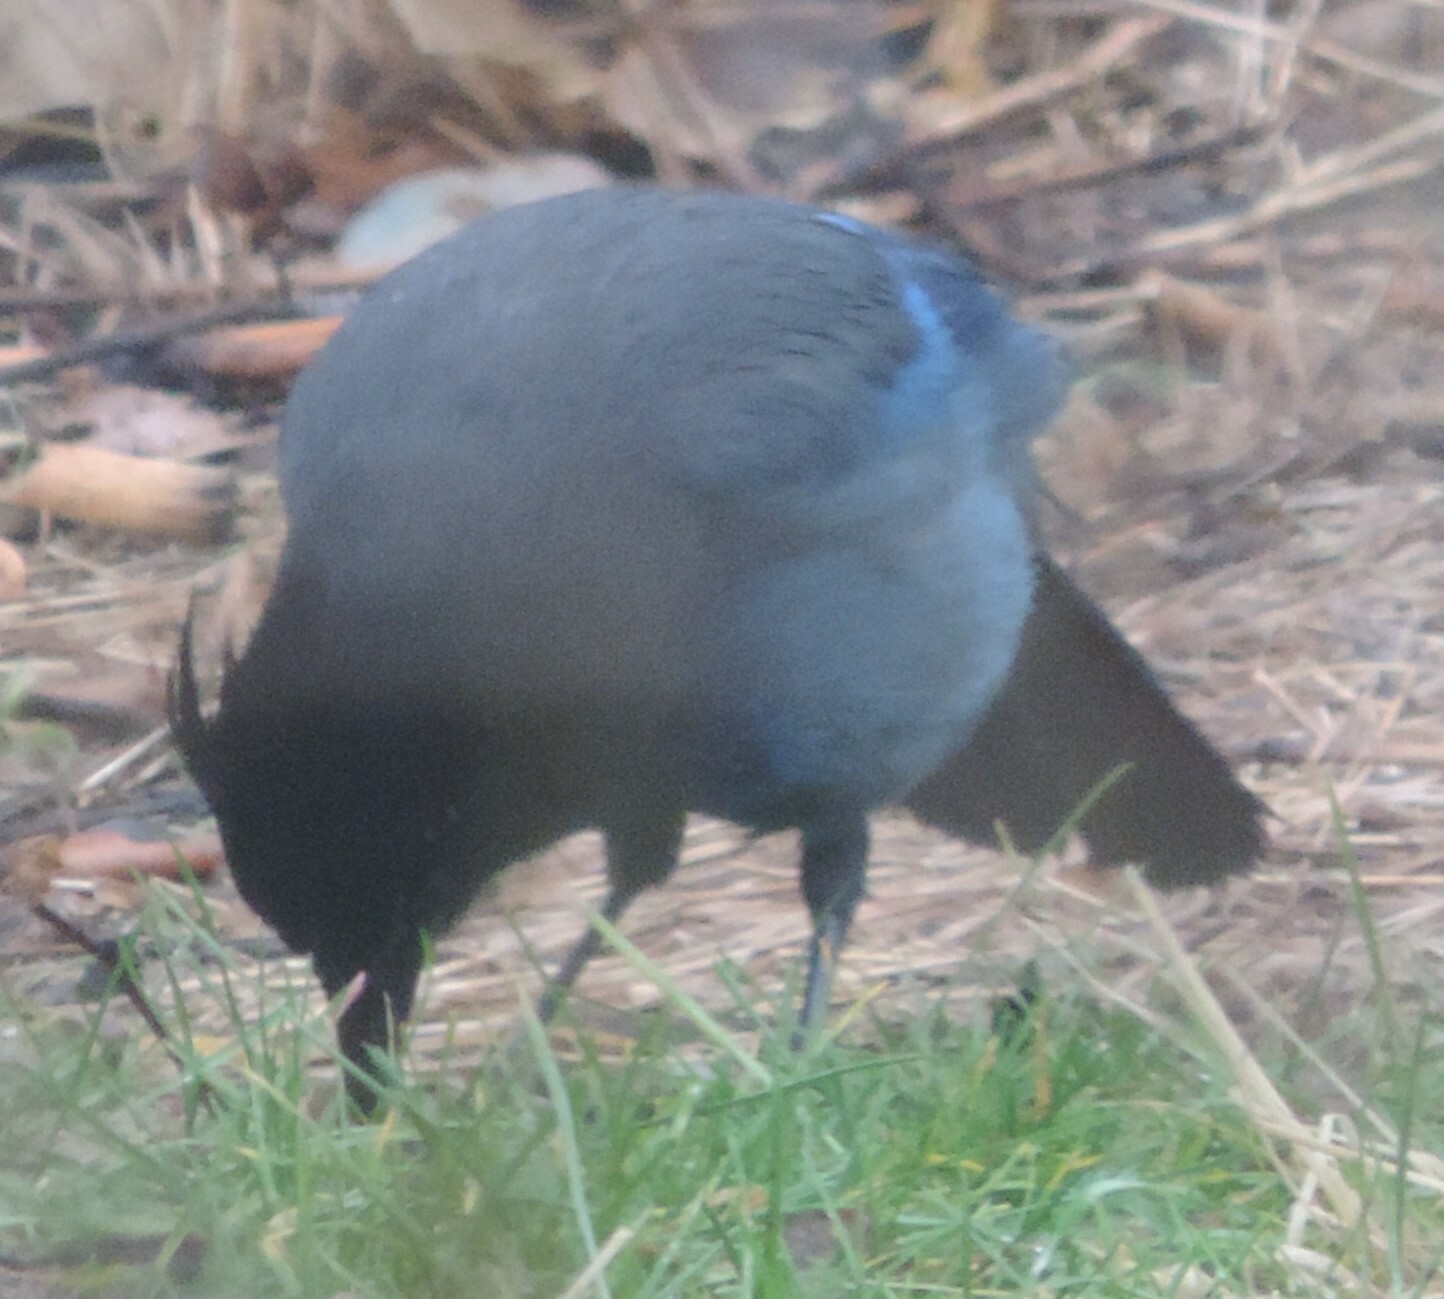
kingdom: Animalia
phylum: Chordata
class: Aves
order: Passeriformes
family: Corvidae
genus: Cyanocitta
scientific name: Cyanocitta stelleri
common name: Steller's jay
